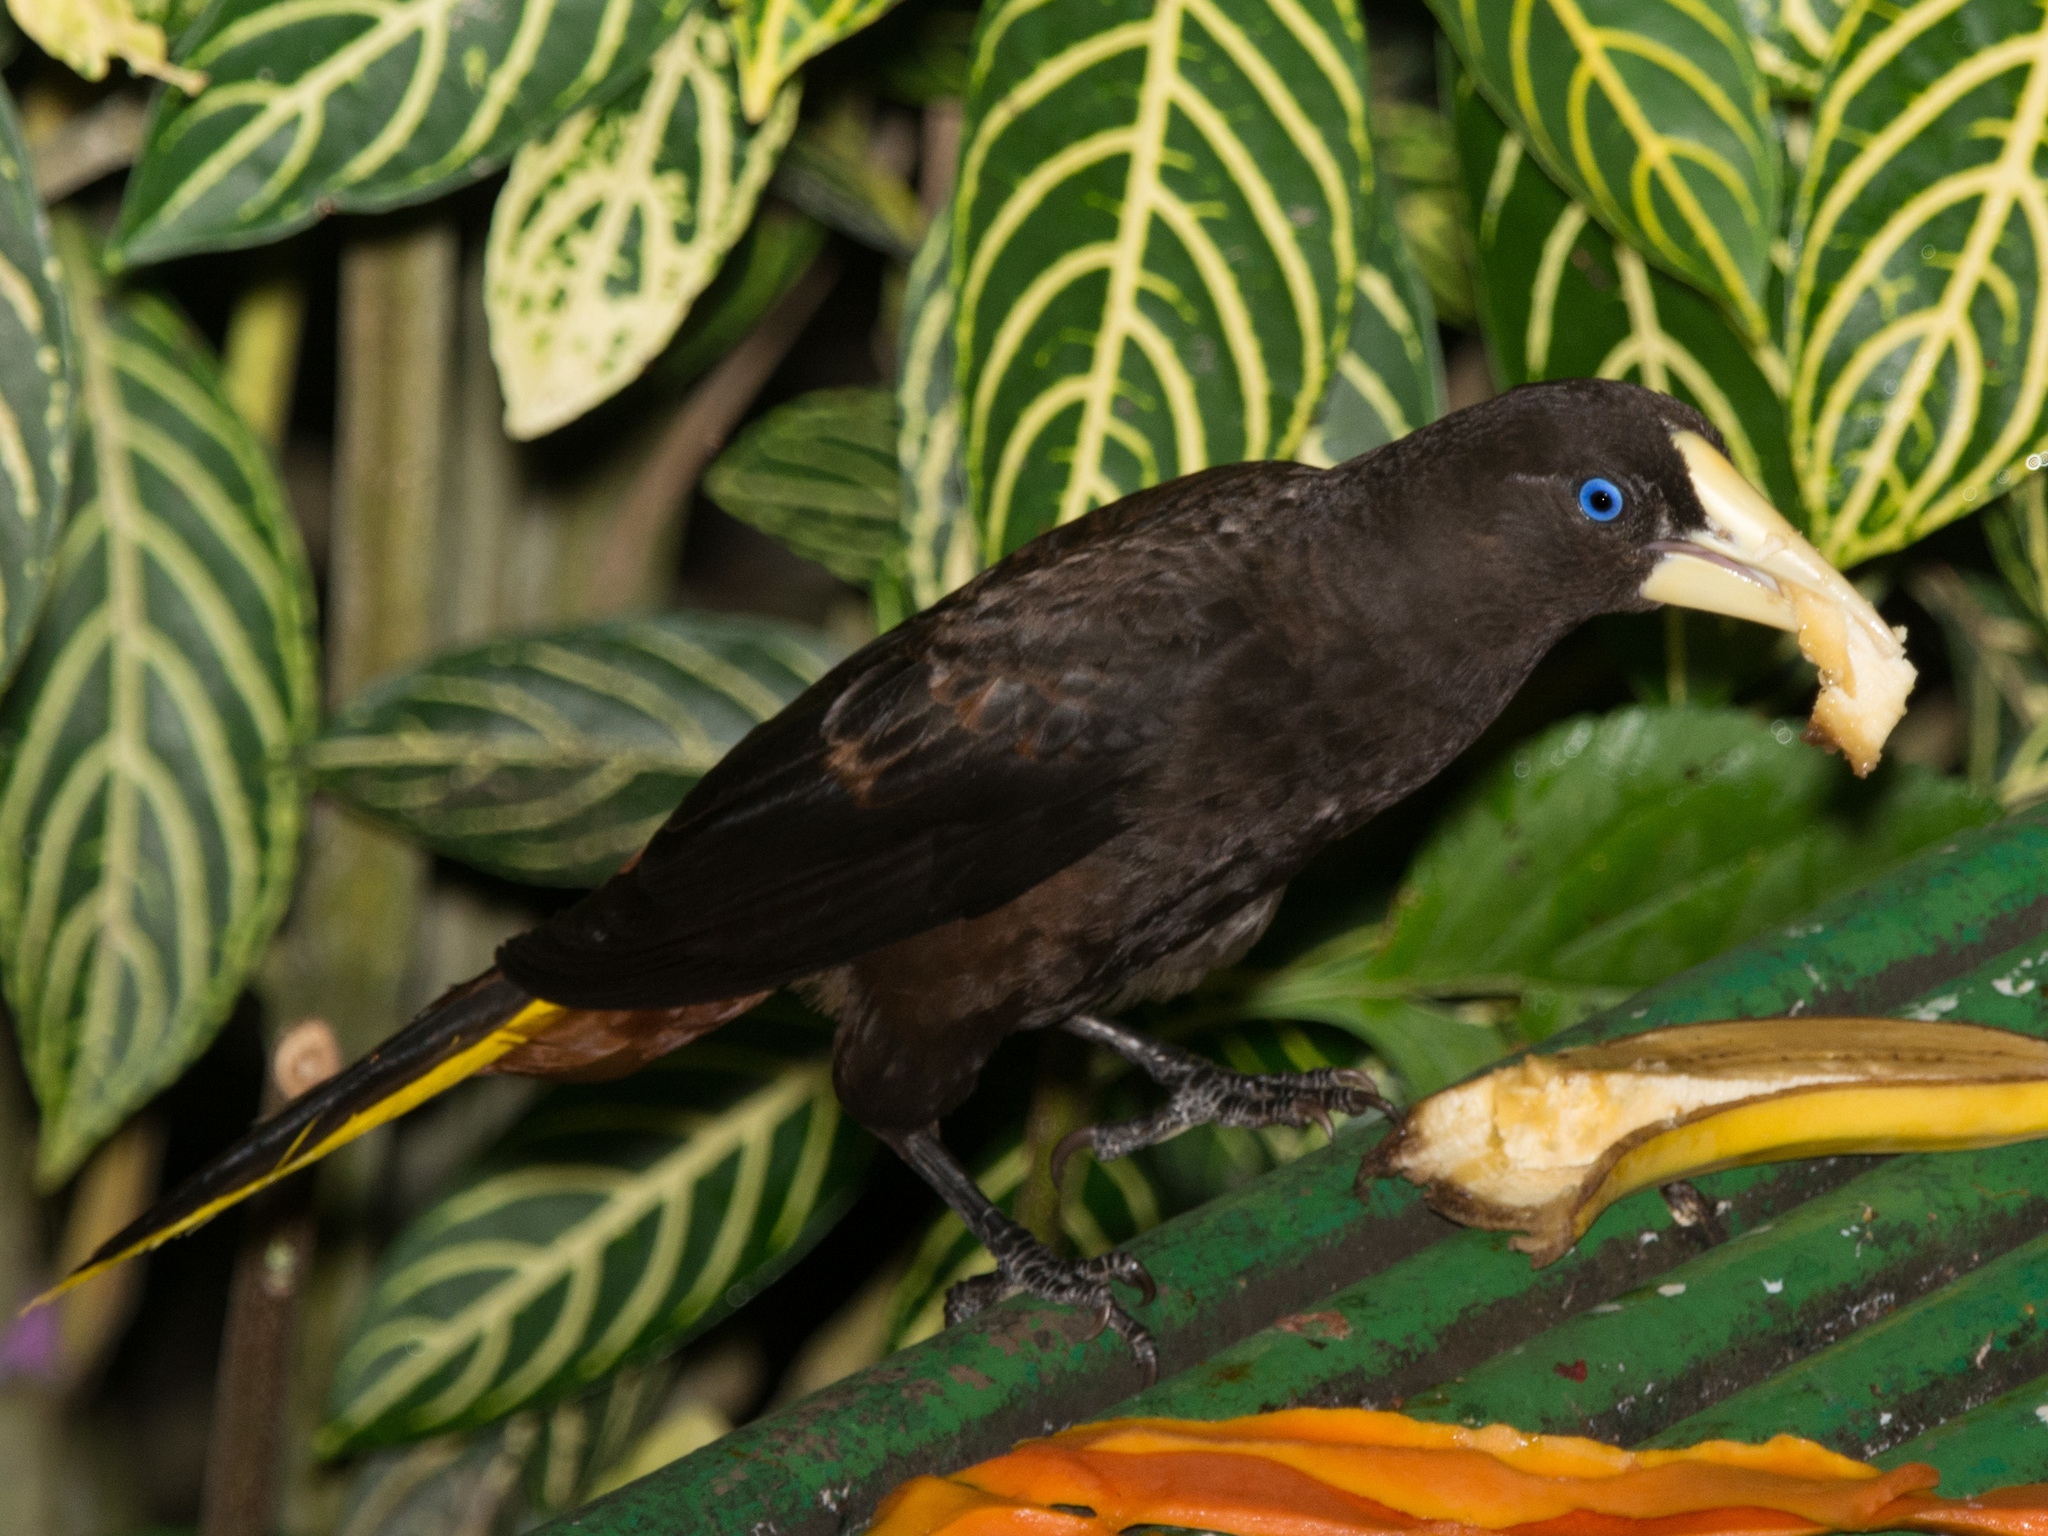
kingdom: Animalia
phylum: Chordata
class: Aves
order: Passeriformes
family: Icteridae
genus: Psarocolius
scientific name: Psarocolius decumanus
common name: Crested oropendola
